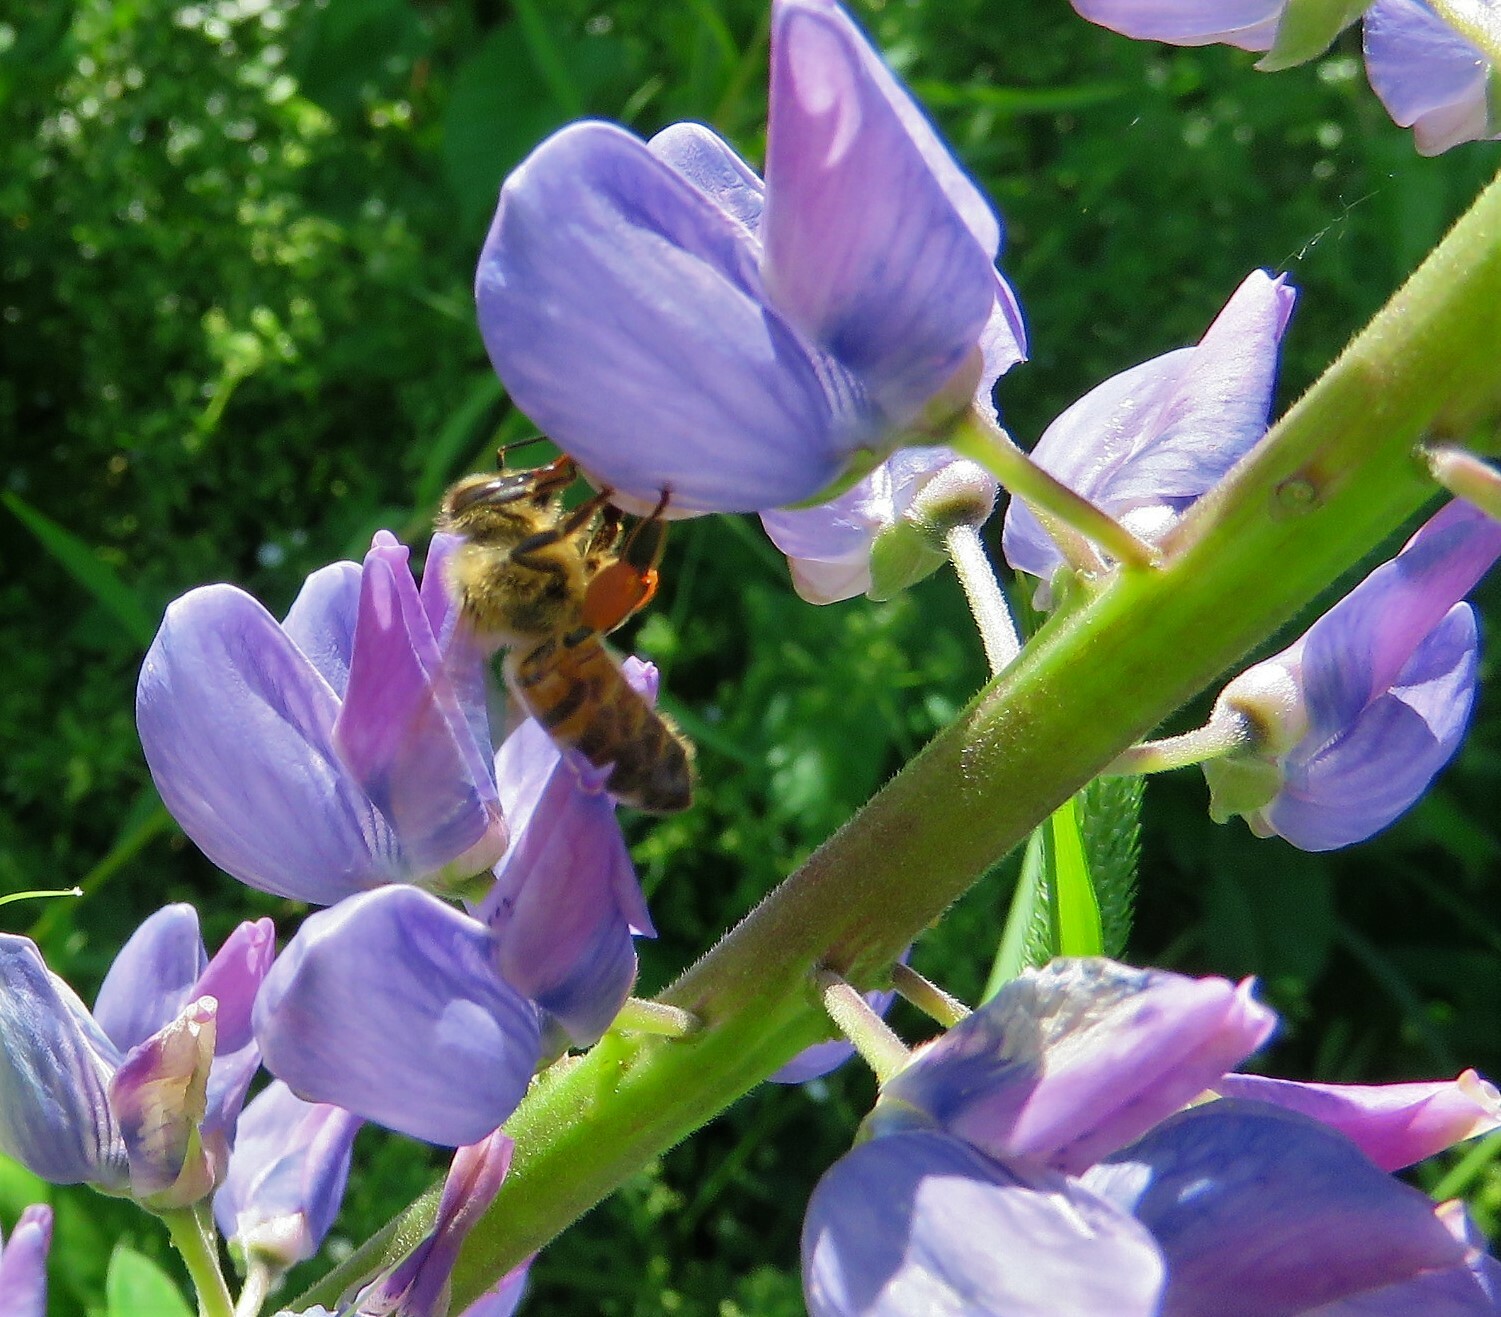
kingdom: Animalia
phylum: Arthropoda
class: Insecta
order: Hymenoptera
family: Apidae
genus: Apis
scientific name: Apis mellifera
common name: Honey bee
